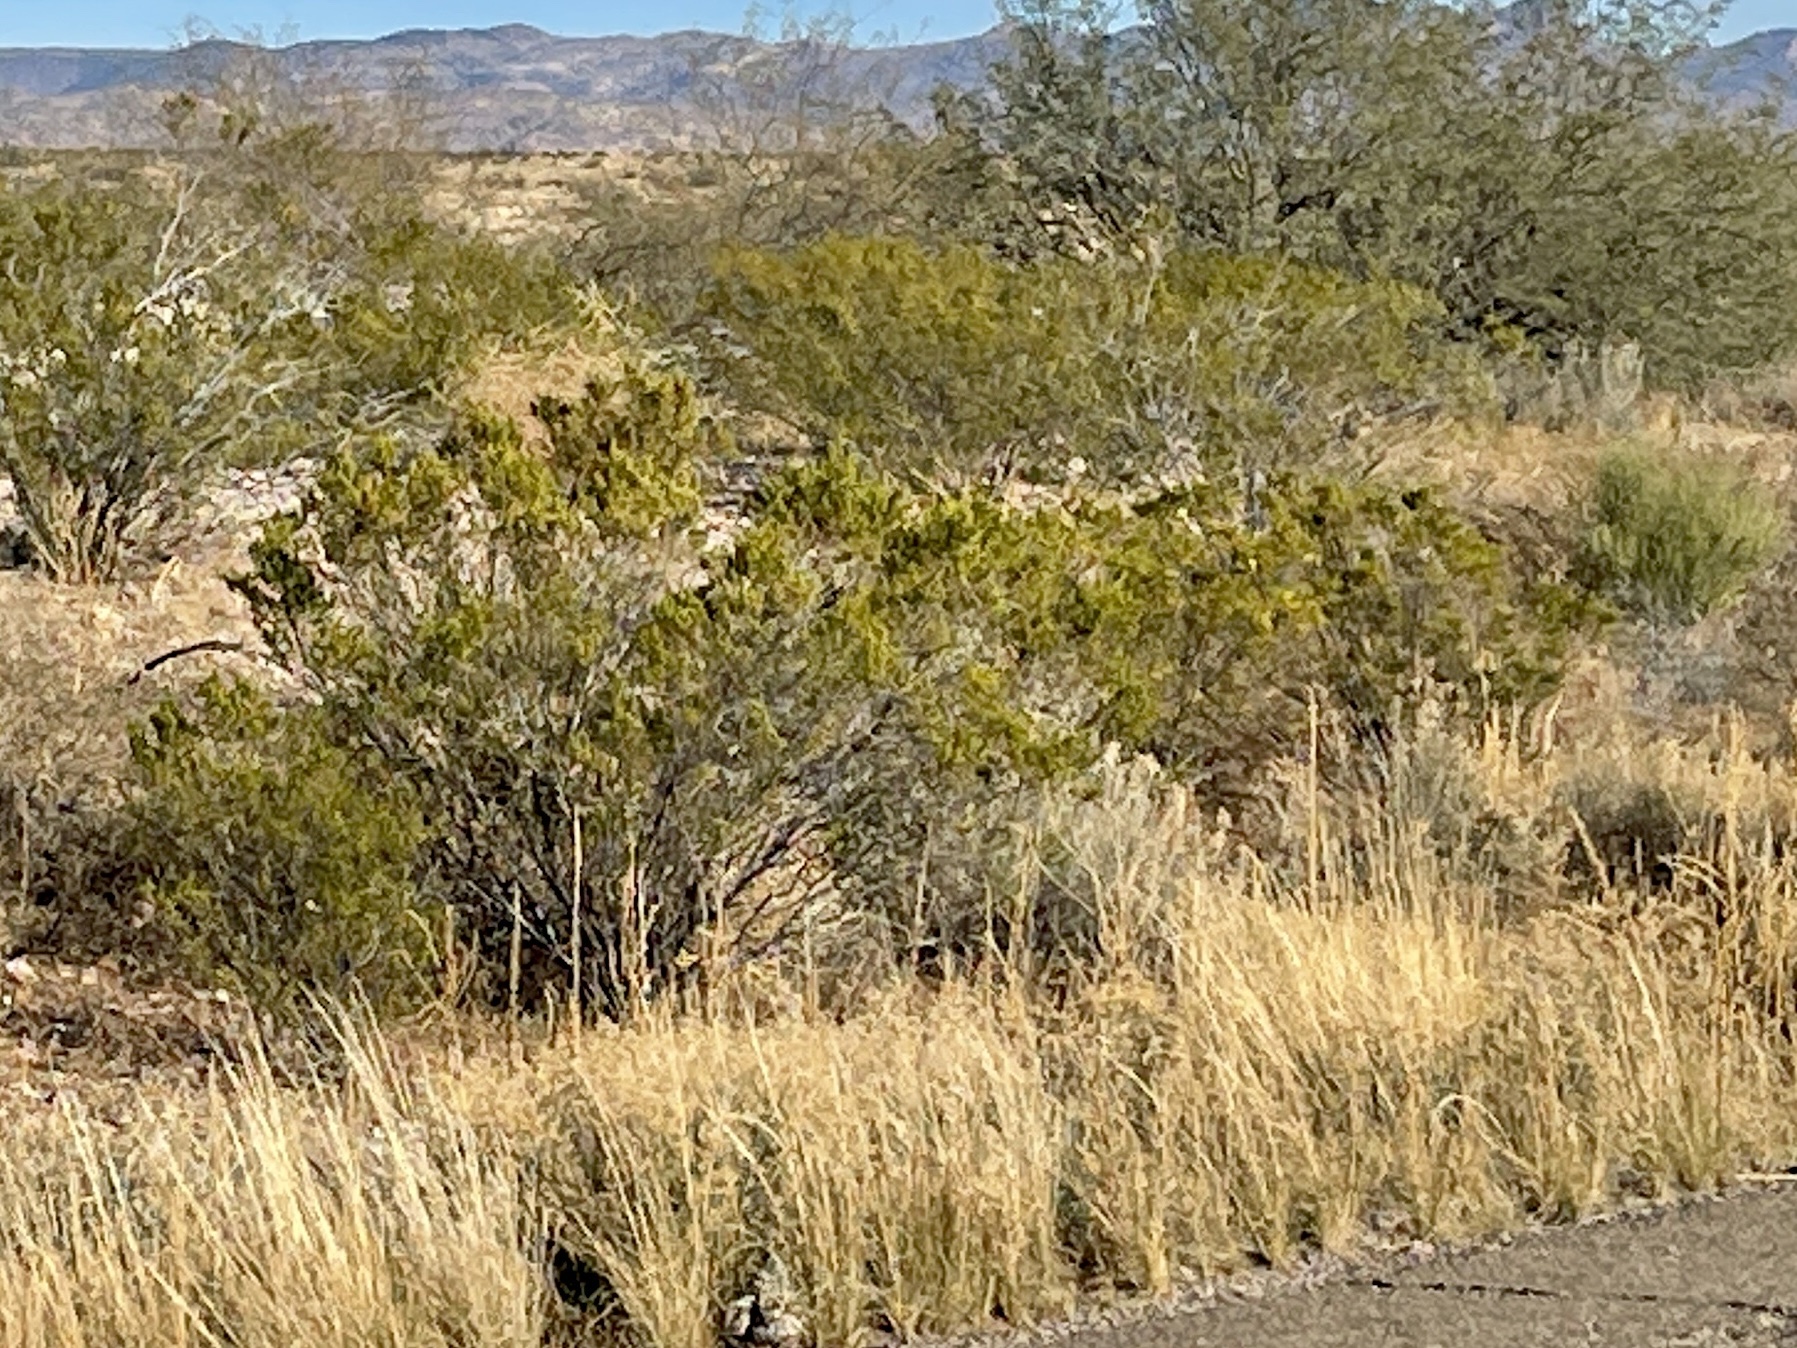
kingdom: Plantae
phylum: Tracheophyta
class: Magnoliopsida
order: Zygophyllales
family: Zygophyllaceae
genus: Larrea
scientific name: Larrea tridentata
